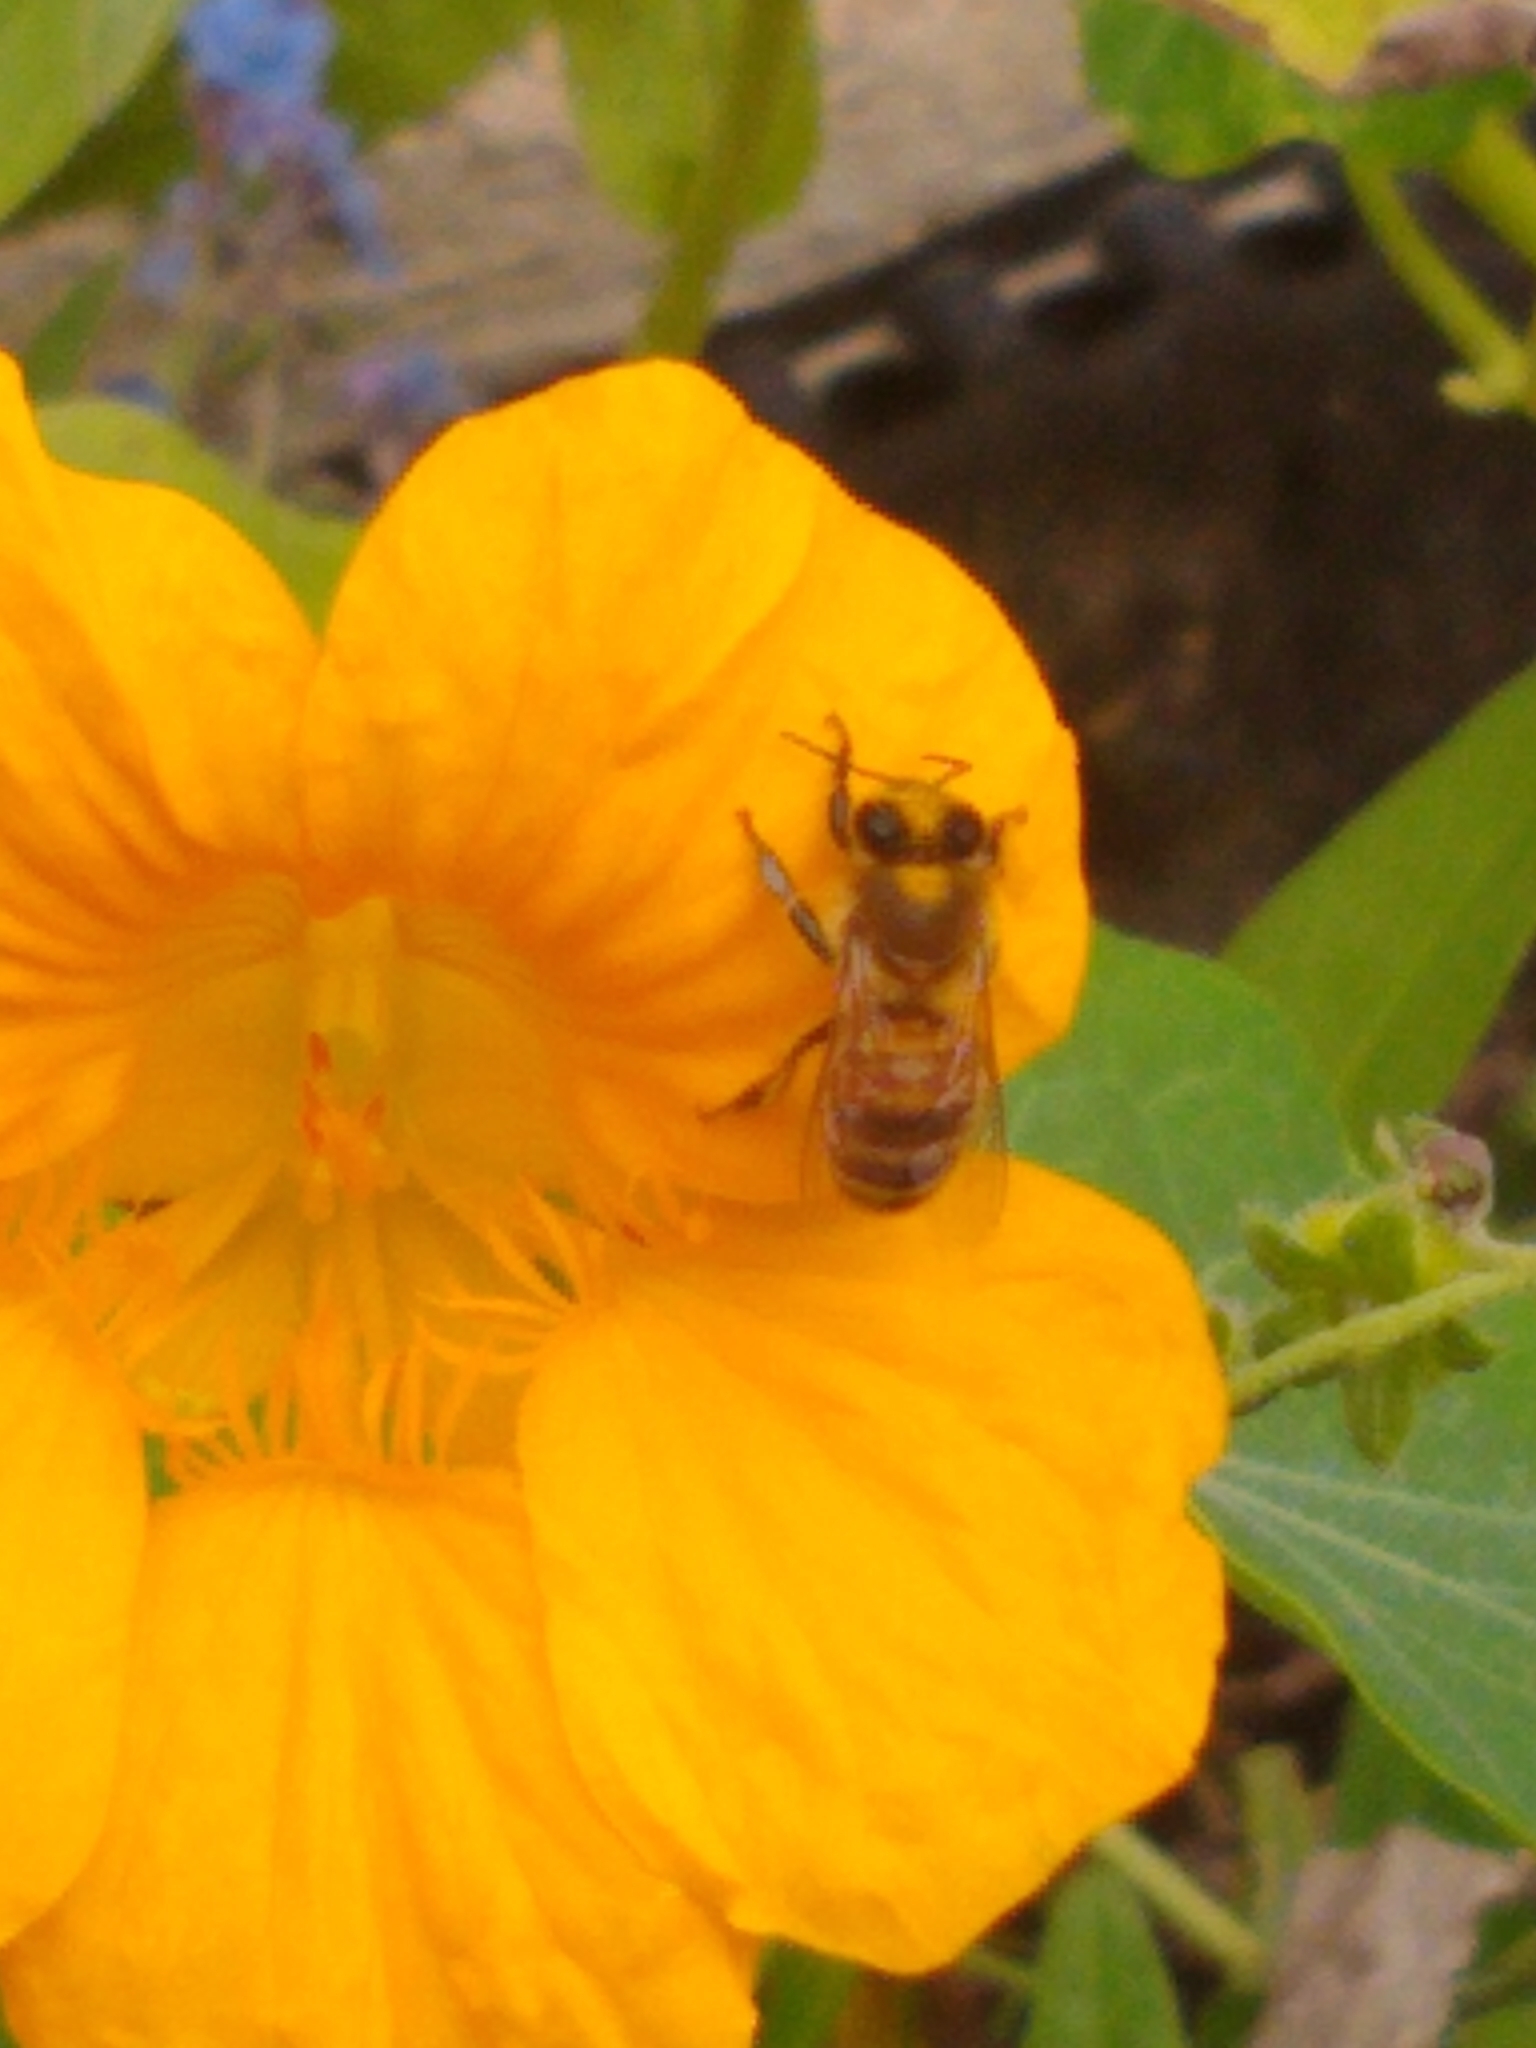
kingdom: Animalia
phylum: Arthropoda
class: Insecta
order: Hymenoptera
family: Apidae
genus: Apis
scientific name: Apis mellifera
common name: Honey bee
